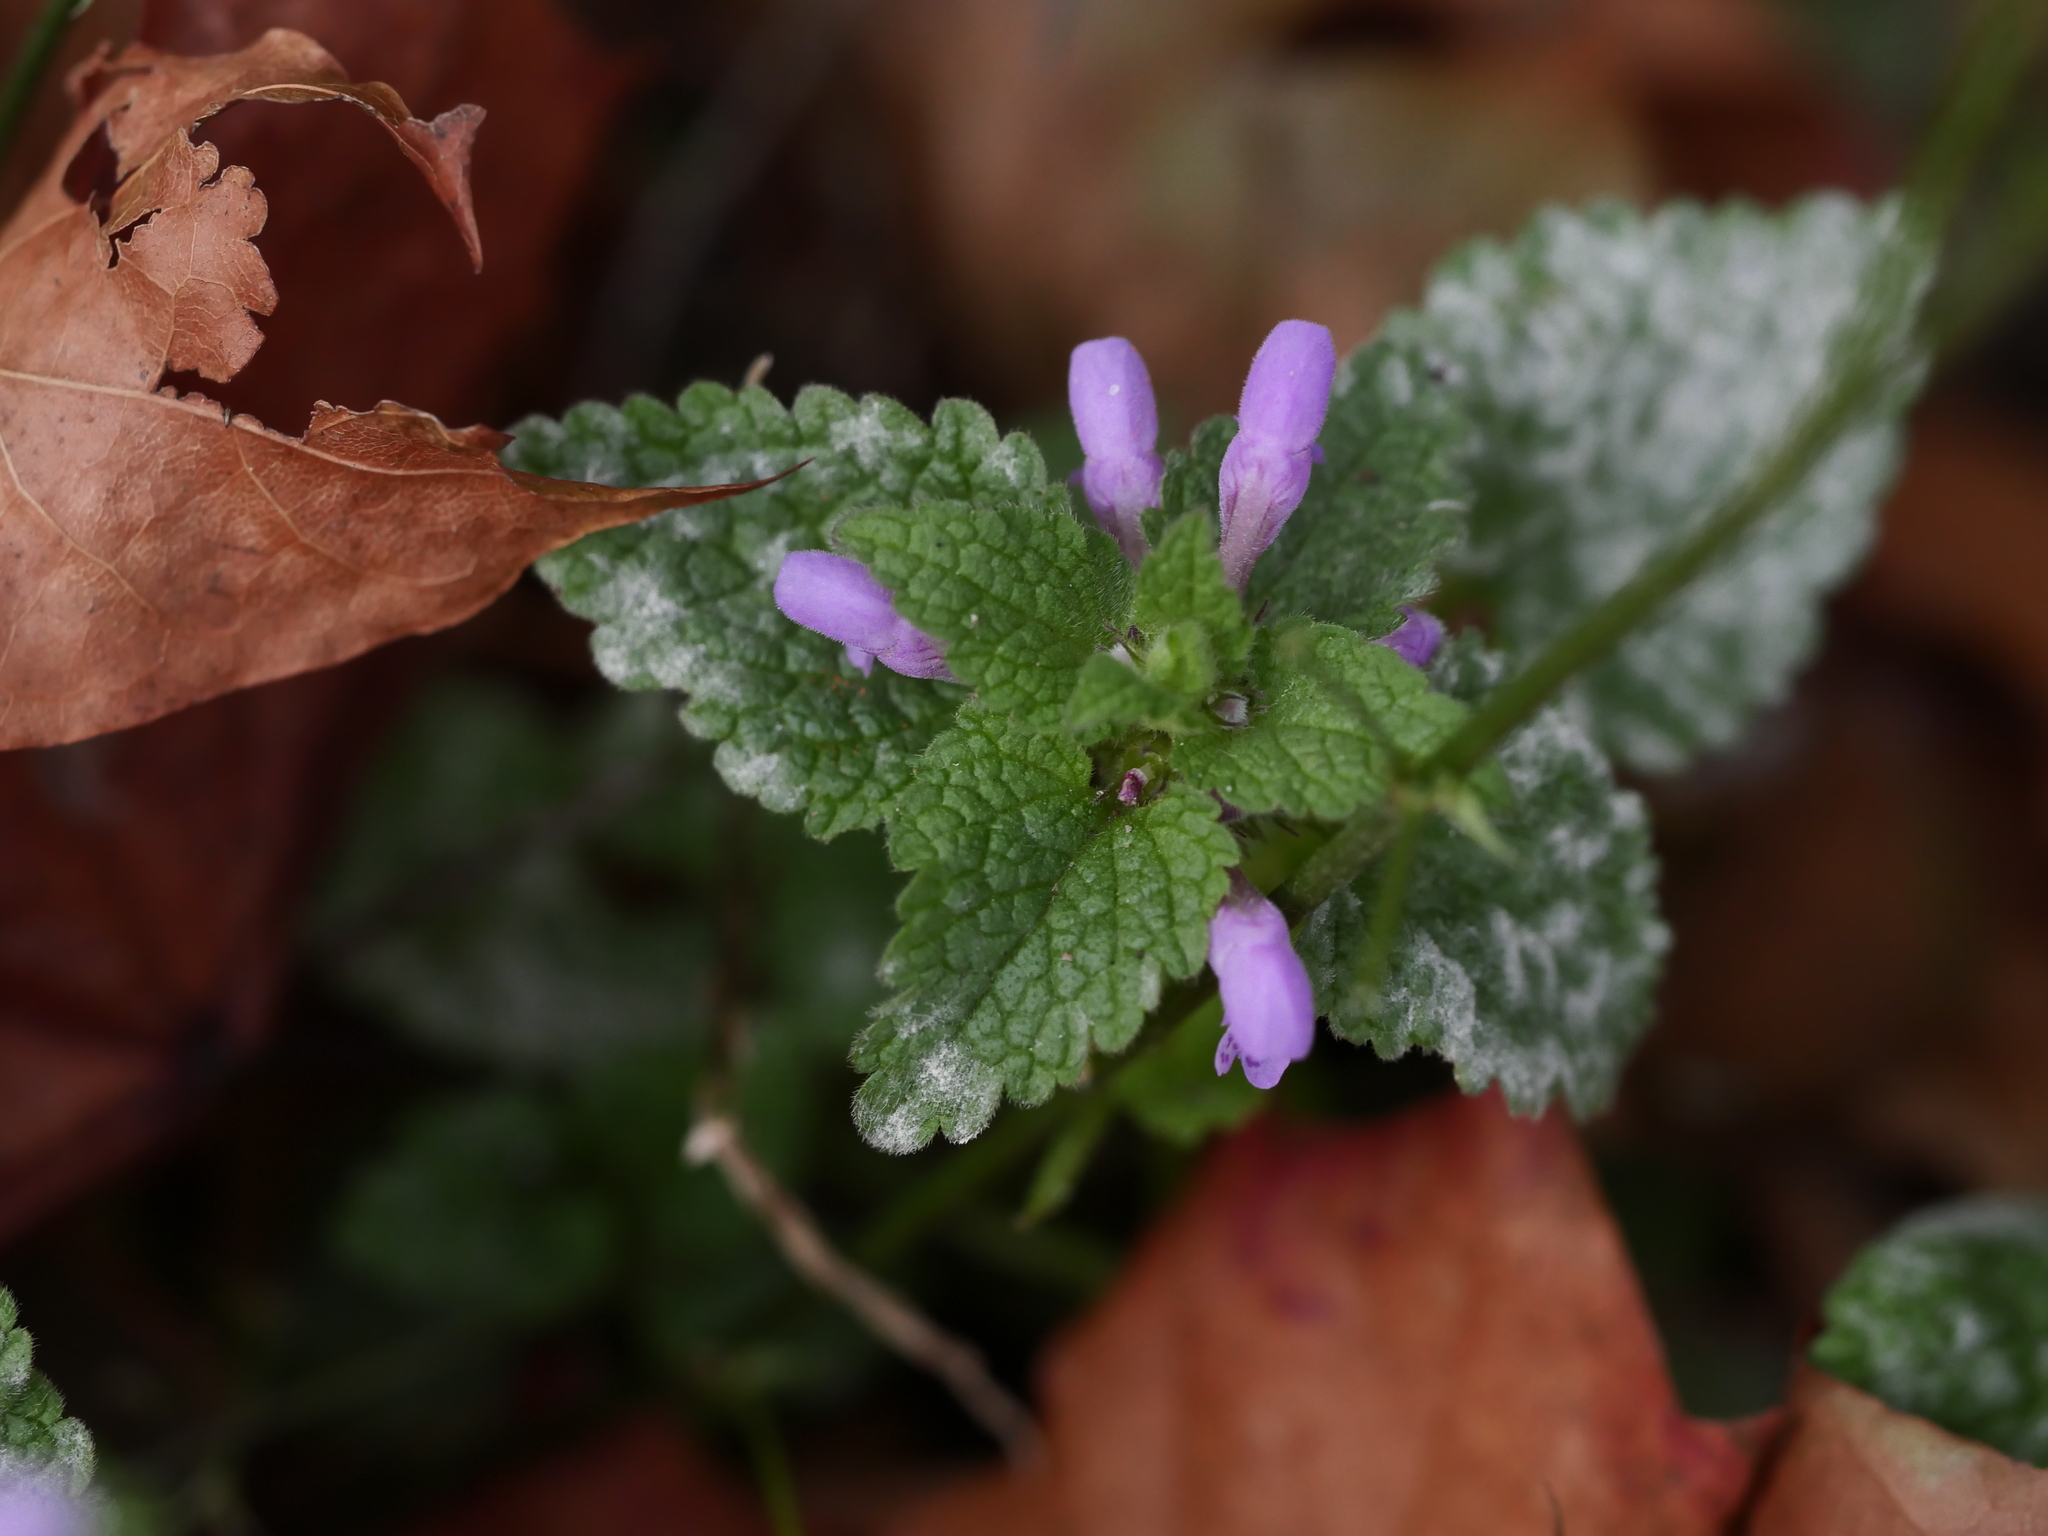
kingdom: Plantae
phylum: Tracheophyta
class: Magnoliopsida
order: Lamiales
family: Lamiaceae
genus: Lamium
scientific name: Lamium purpureum
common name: Red dead-nettle
